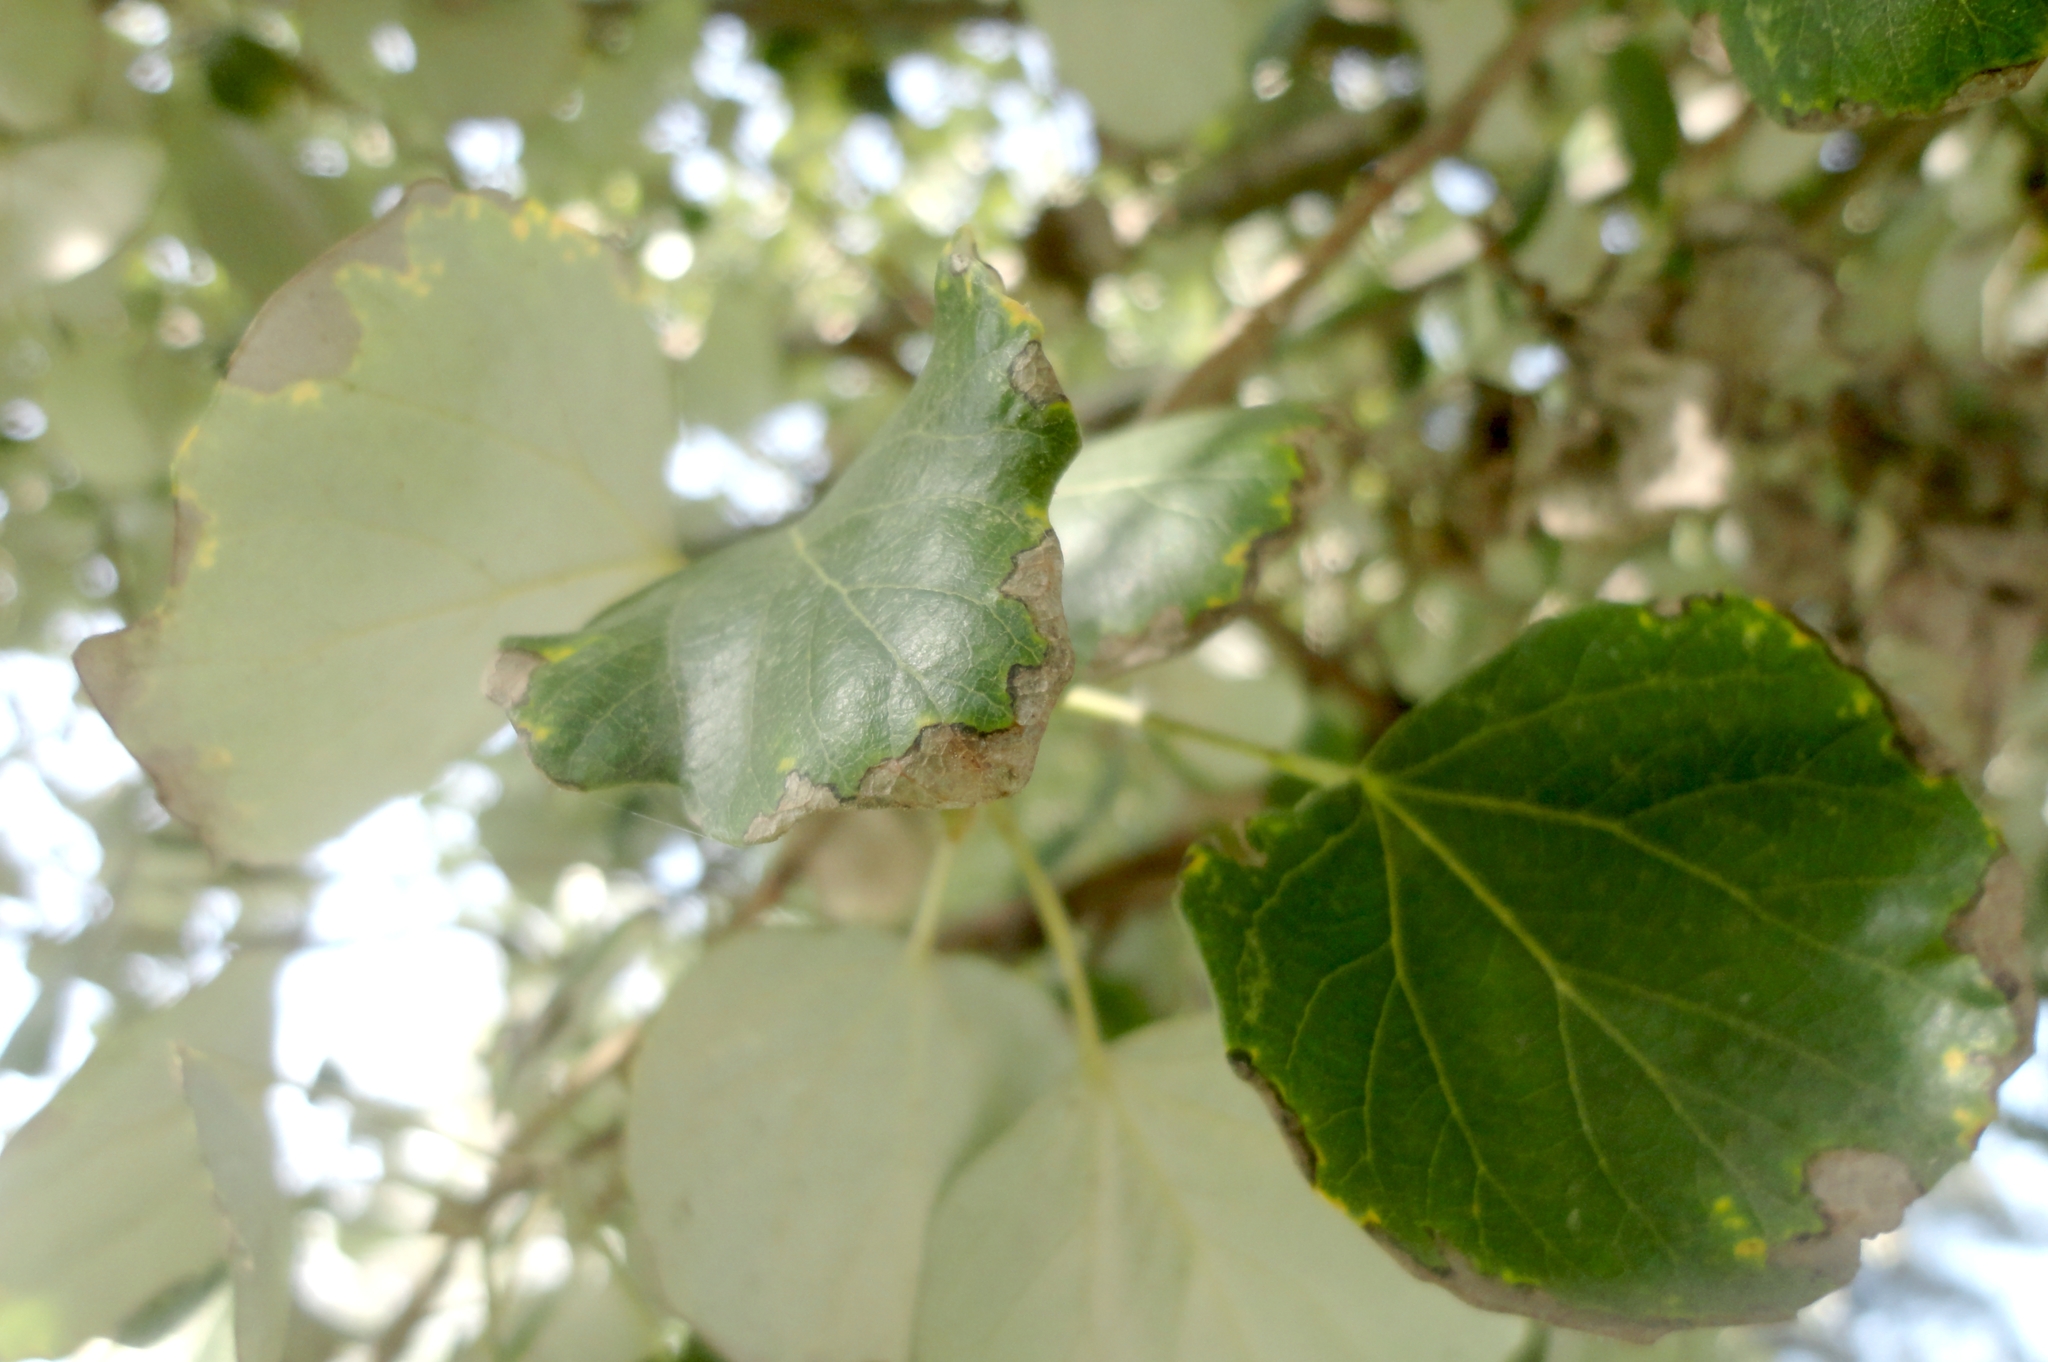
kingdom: Plantae
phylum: Tracheophyta
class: Magnoliopsida
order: Malpighiales
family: Salicaceae
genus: Populus
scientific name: Populus alba
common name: White poplar
